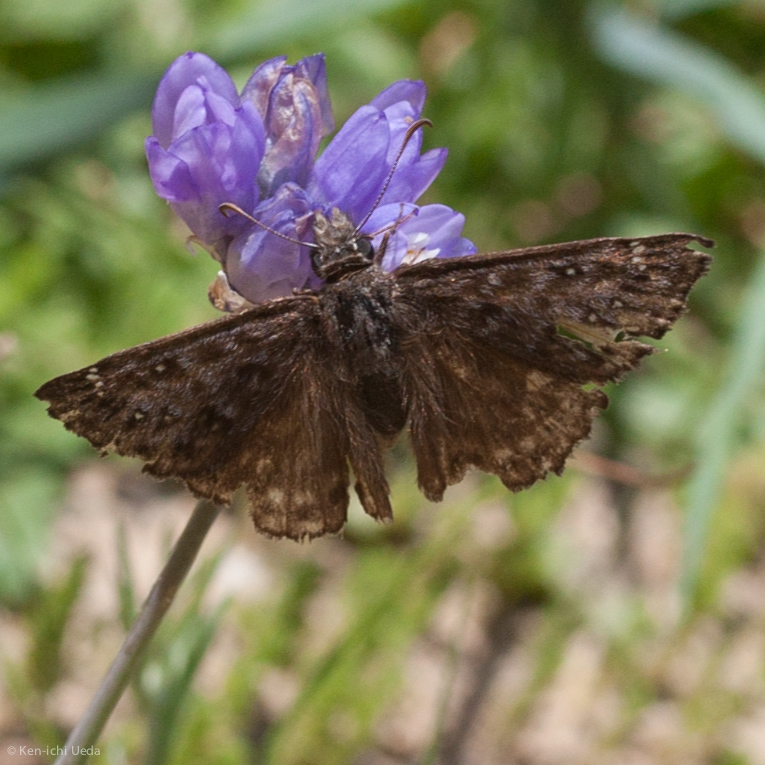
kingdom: Animalia
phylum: Arthropoda
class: Insecta
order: Lepidoptera
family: Hesperiidae
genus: Erynnis
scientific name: Erynnis propertius
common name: Propertius duskywing
